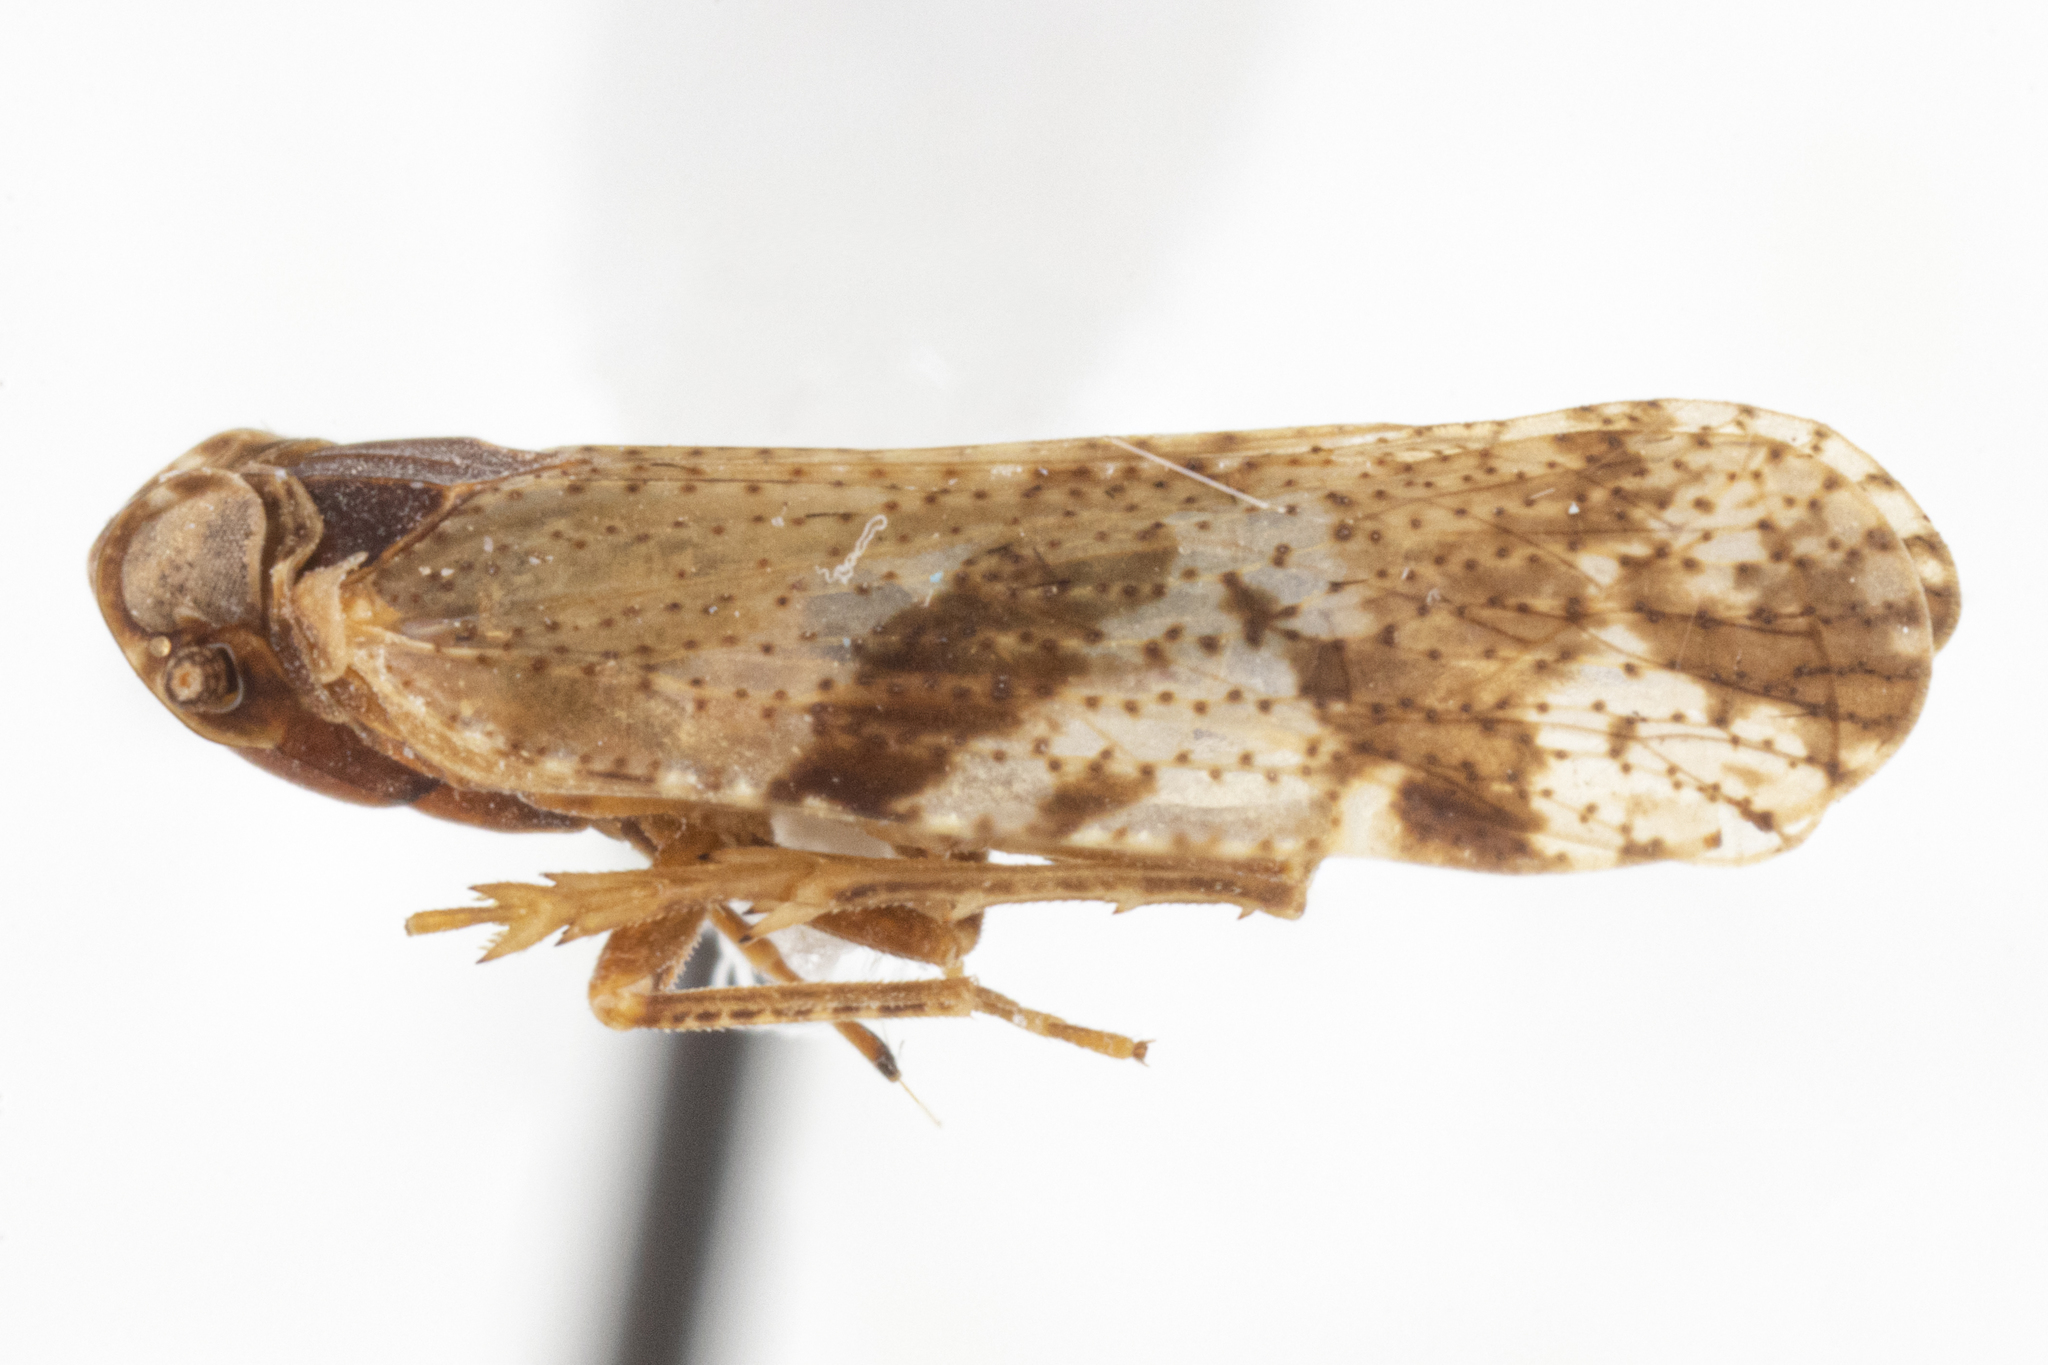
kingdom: Animalia
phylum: Arthropoda
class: Insecta
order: Hemiptera
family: Cixiidae
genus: Cixiosoma
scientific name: Cixiosoma bonaerense
